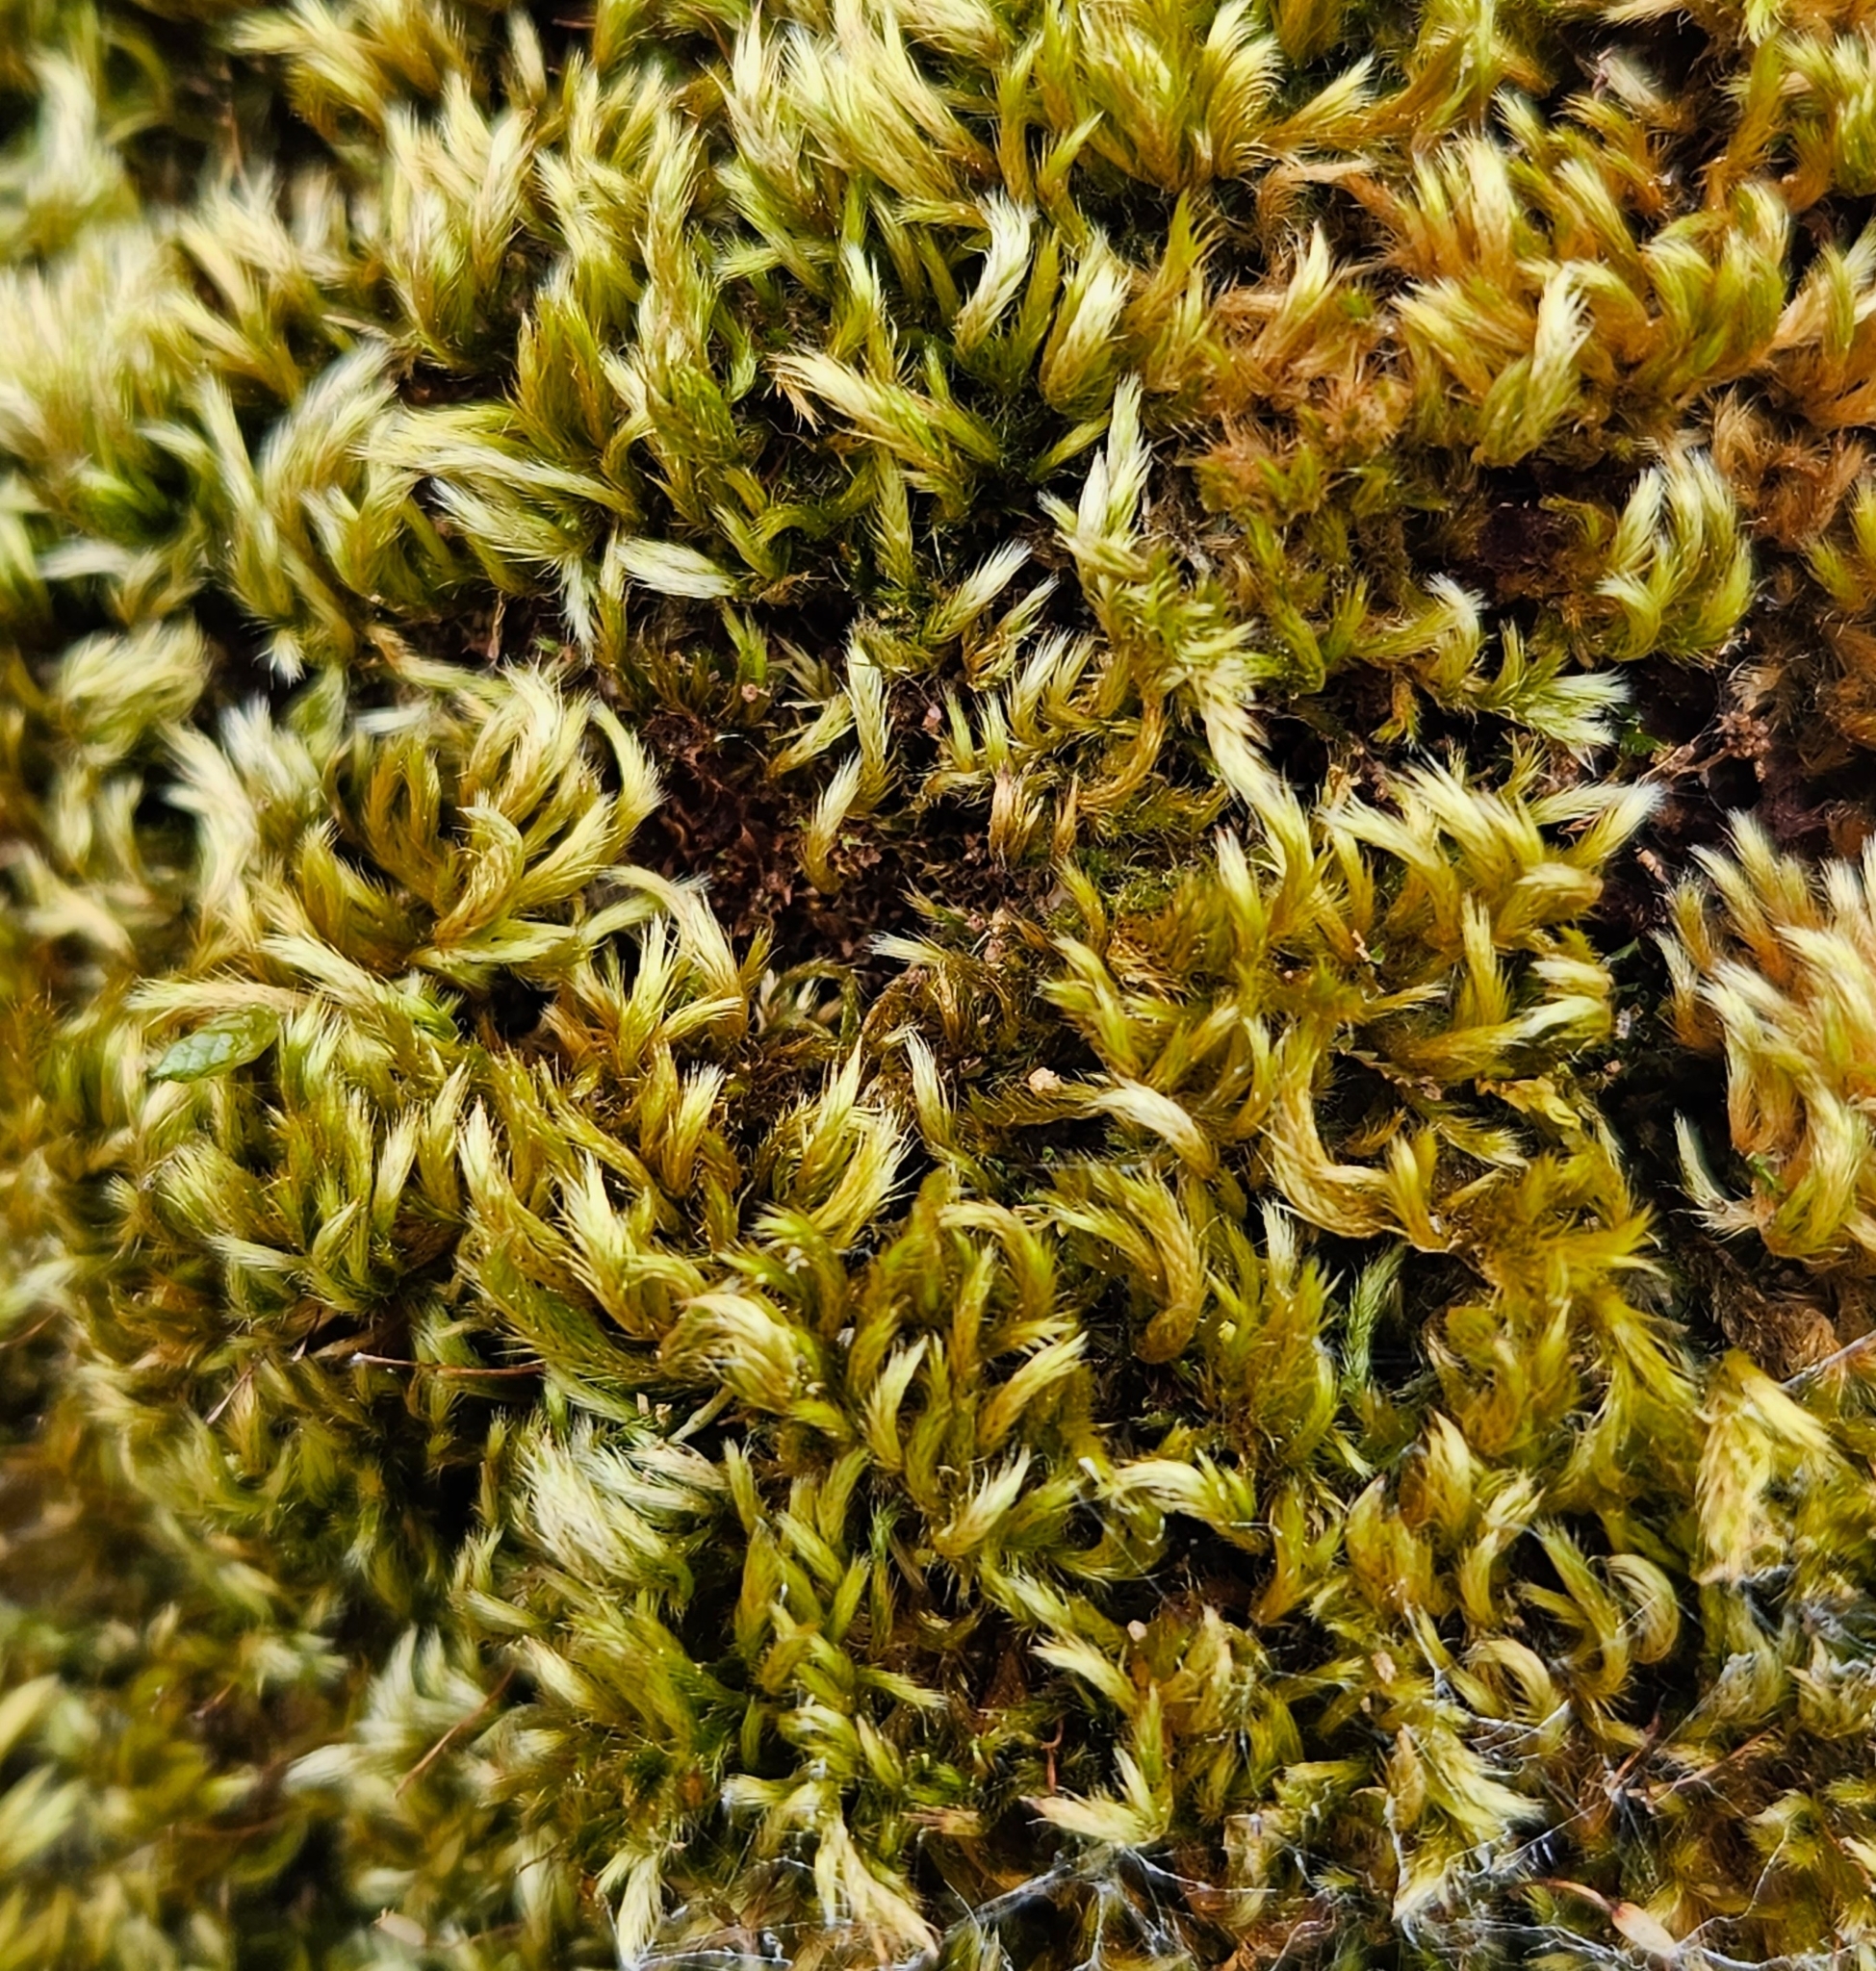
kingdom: Plantae
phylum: Bryophyta
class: Bryopsida
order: Hypnales
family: Brachytheciaceae
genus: Homalothecium
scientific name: Homalothecium sericeum
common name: Silky wall feather-moss
